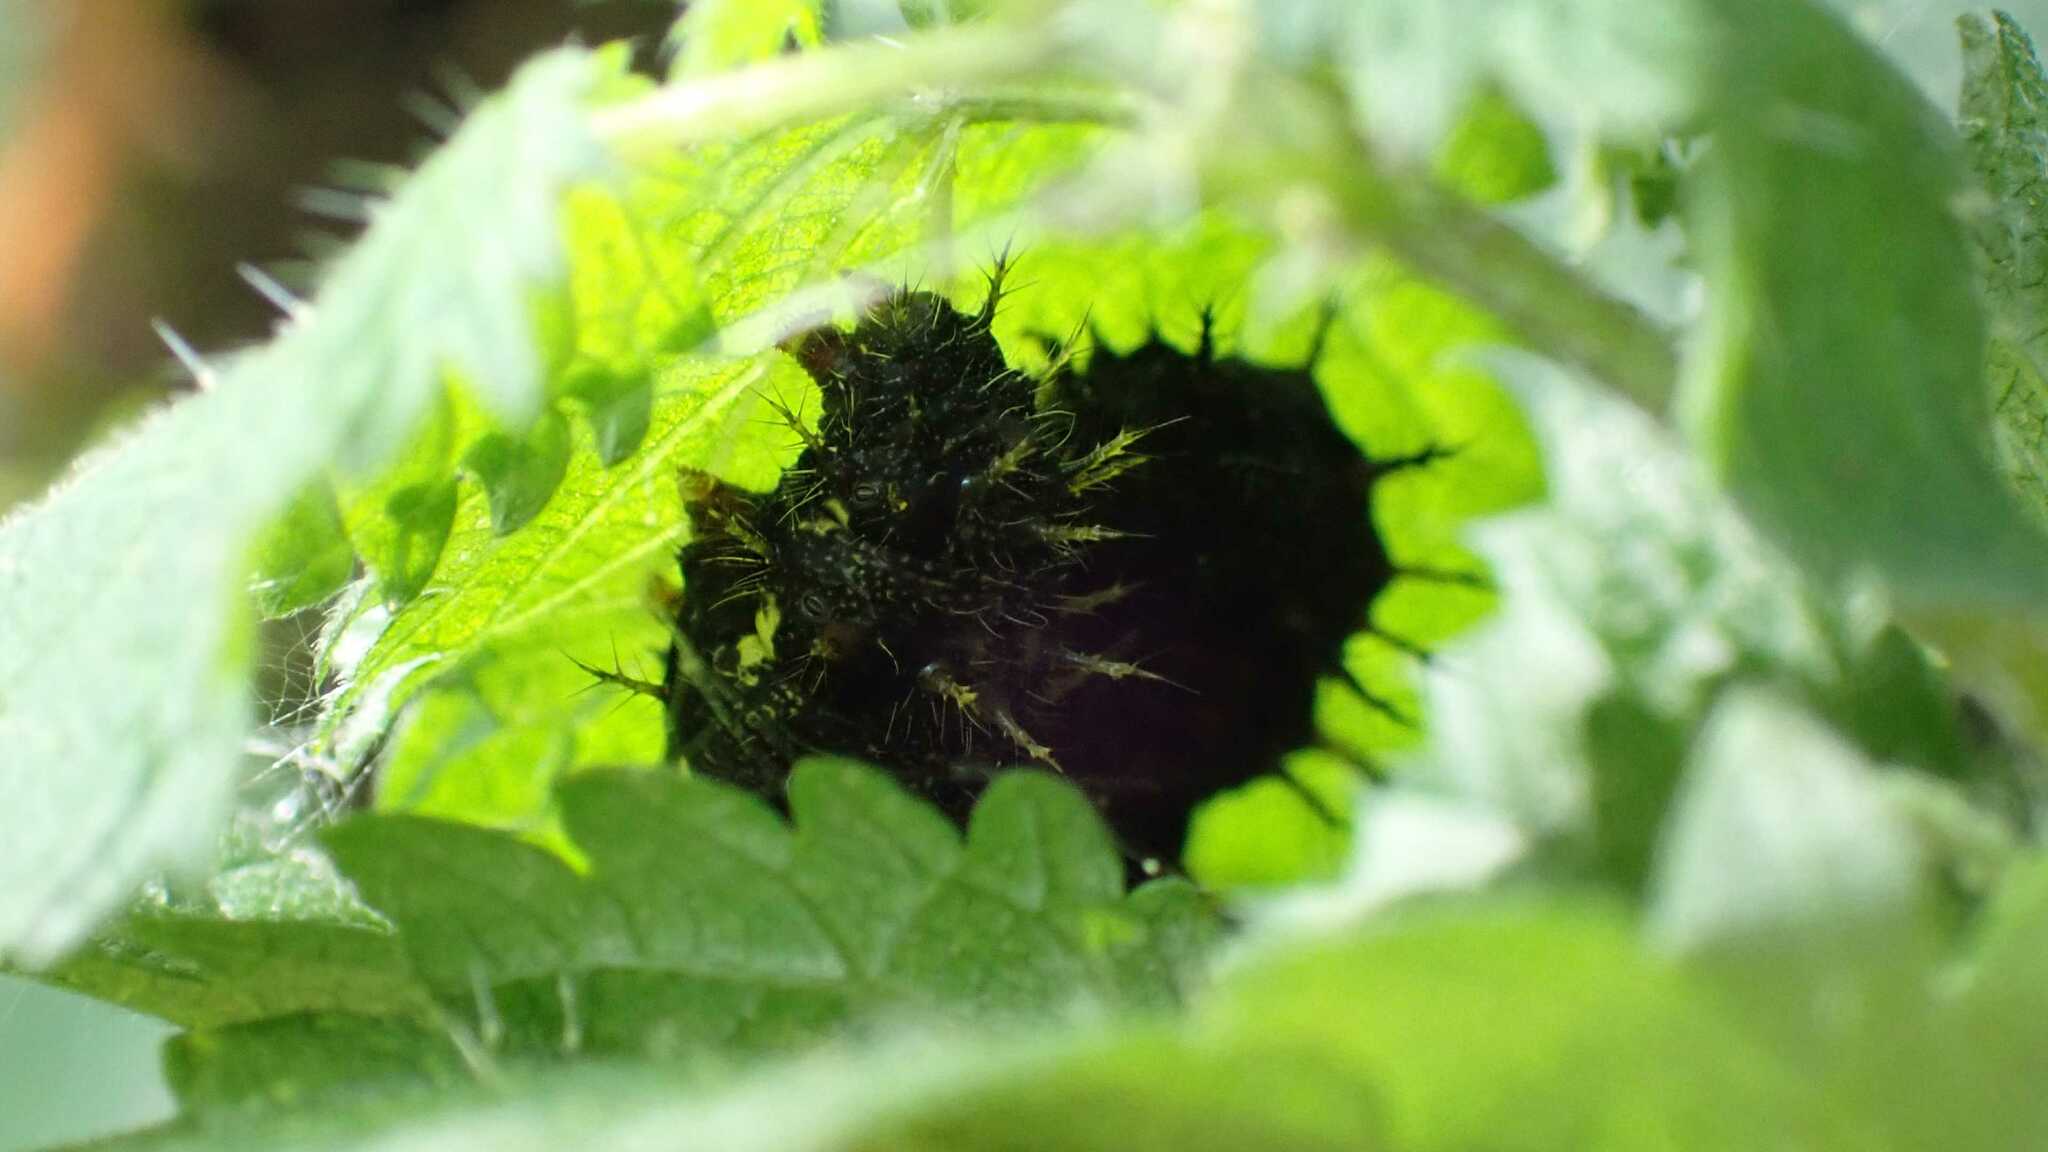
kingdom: Animalia
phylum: Arthropoda
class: Insecta
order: Lepidoptera
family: Nymphalidae
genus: Vanessa
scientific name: Vanessa atalanta
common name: Red admiral
